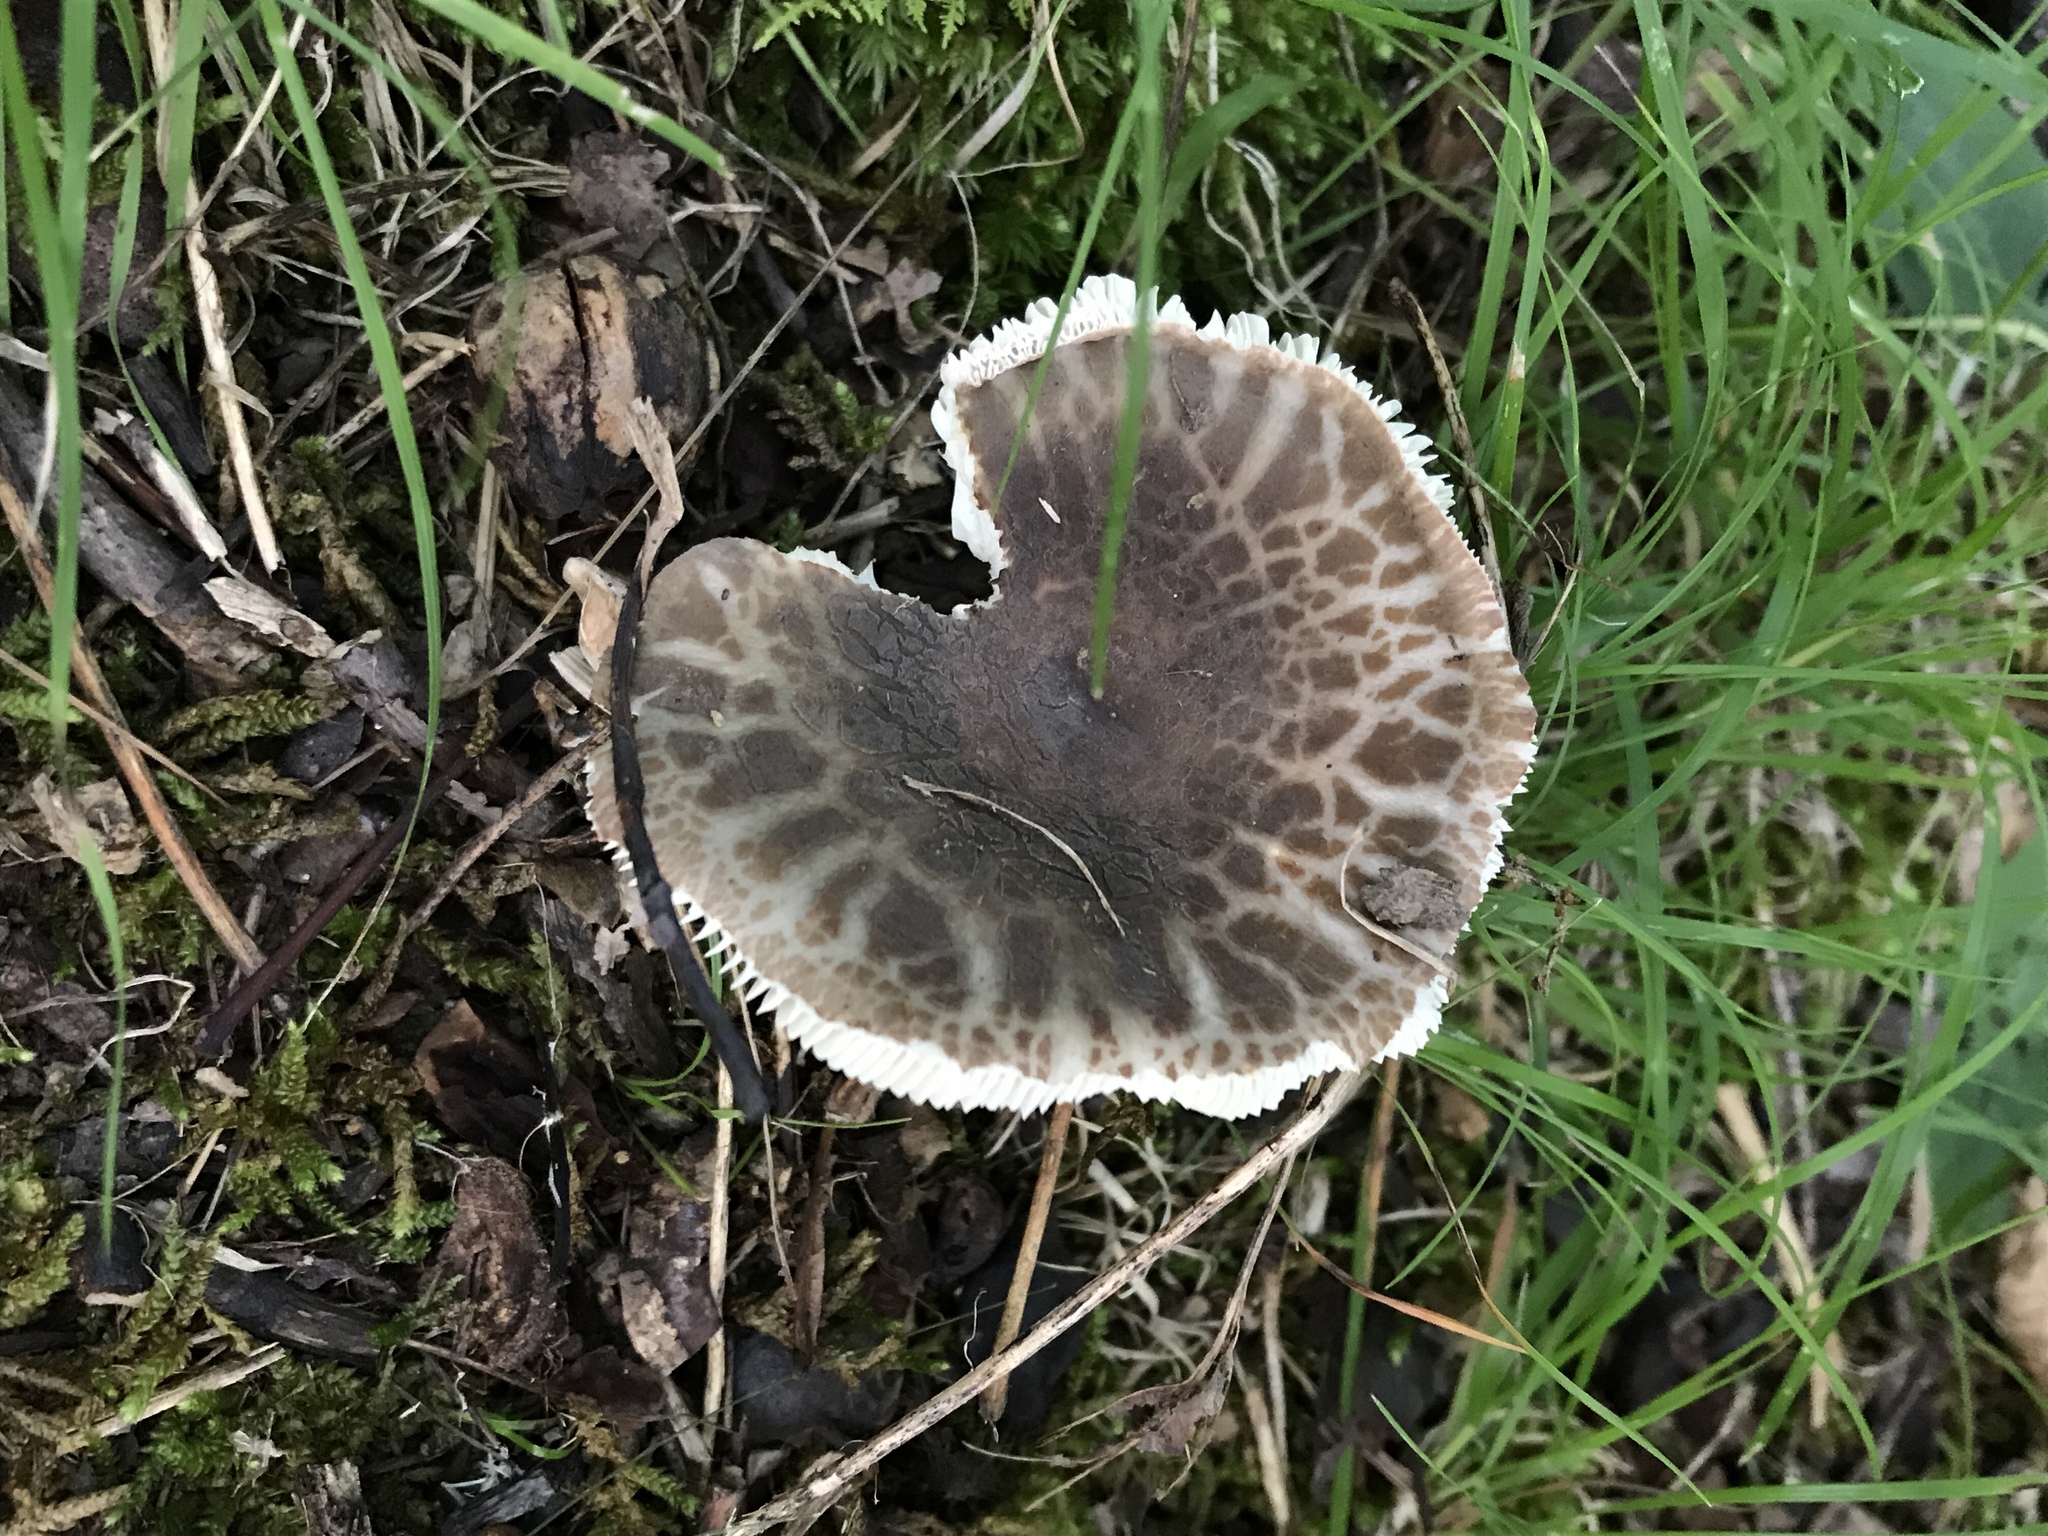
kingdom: Fungi
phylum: Basidiomycota
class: Agaricomycetes
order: Russulales
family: Russulaceae
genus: Russula
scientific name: Russula parvovirescens
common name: Blue-green cracking russula
